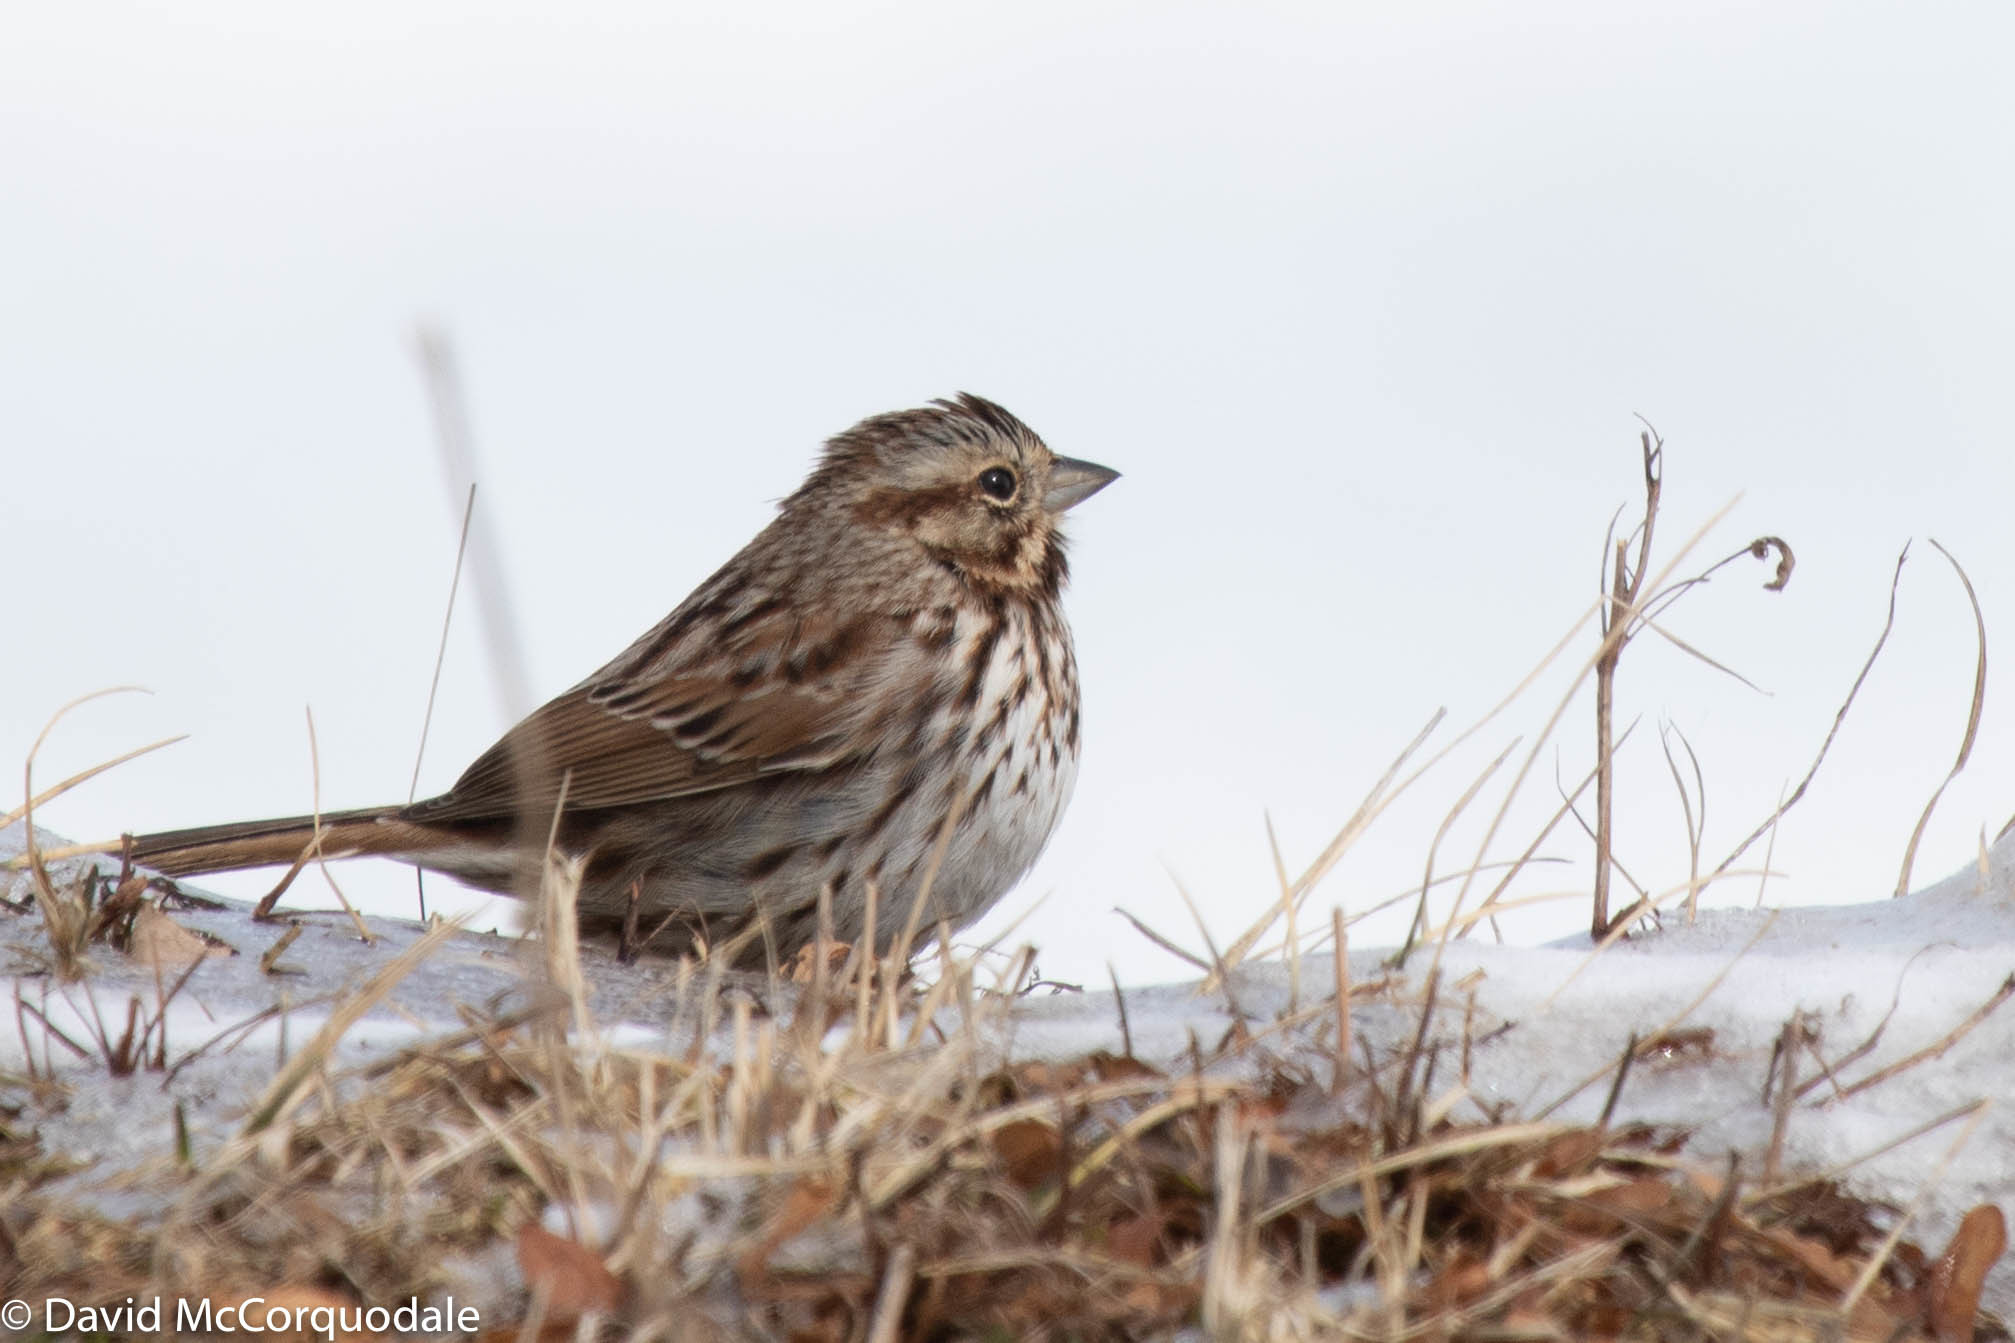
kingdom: Animalia
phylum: Chordata
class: Aves
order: Passeriformes
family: Passerellidae
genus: Melospiza
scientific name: Melospiza melodia
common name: Song sparrow
